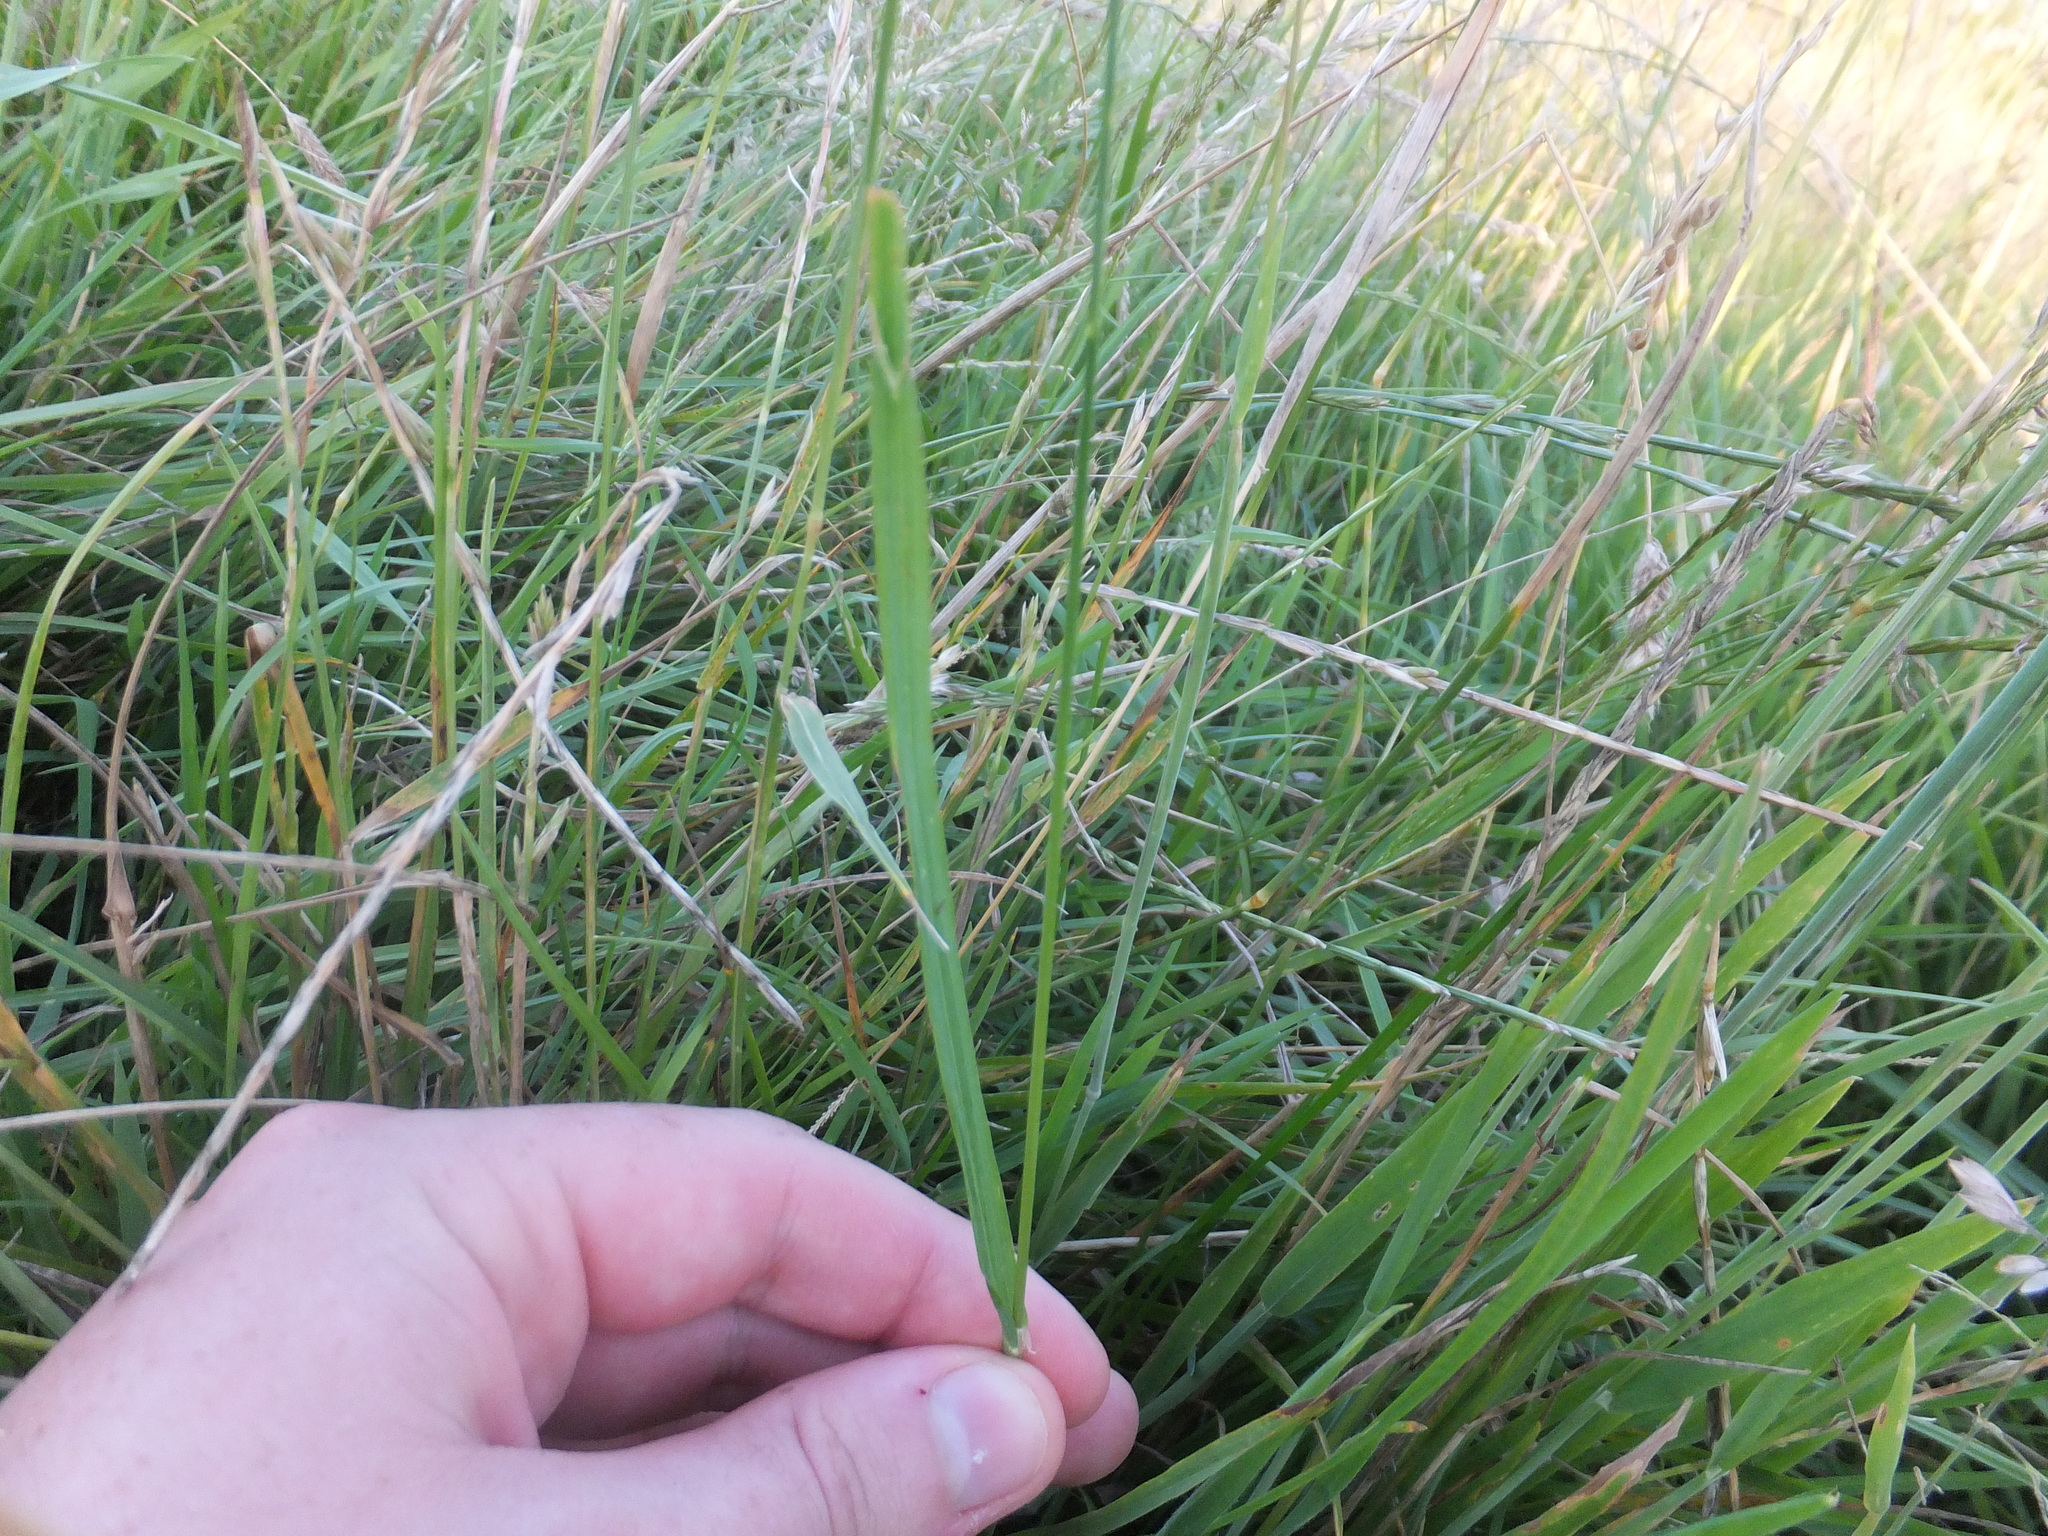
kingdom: Plantae
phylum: Tracheophyta
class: Liliopsida
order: Poales
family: Poaceae
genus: Dactylis
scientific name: Dactylis glomerata
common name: Orchardgrass
